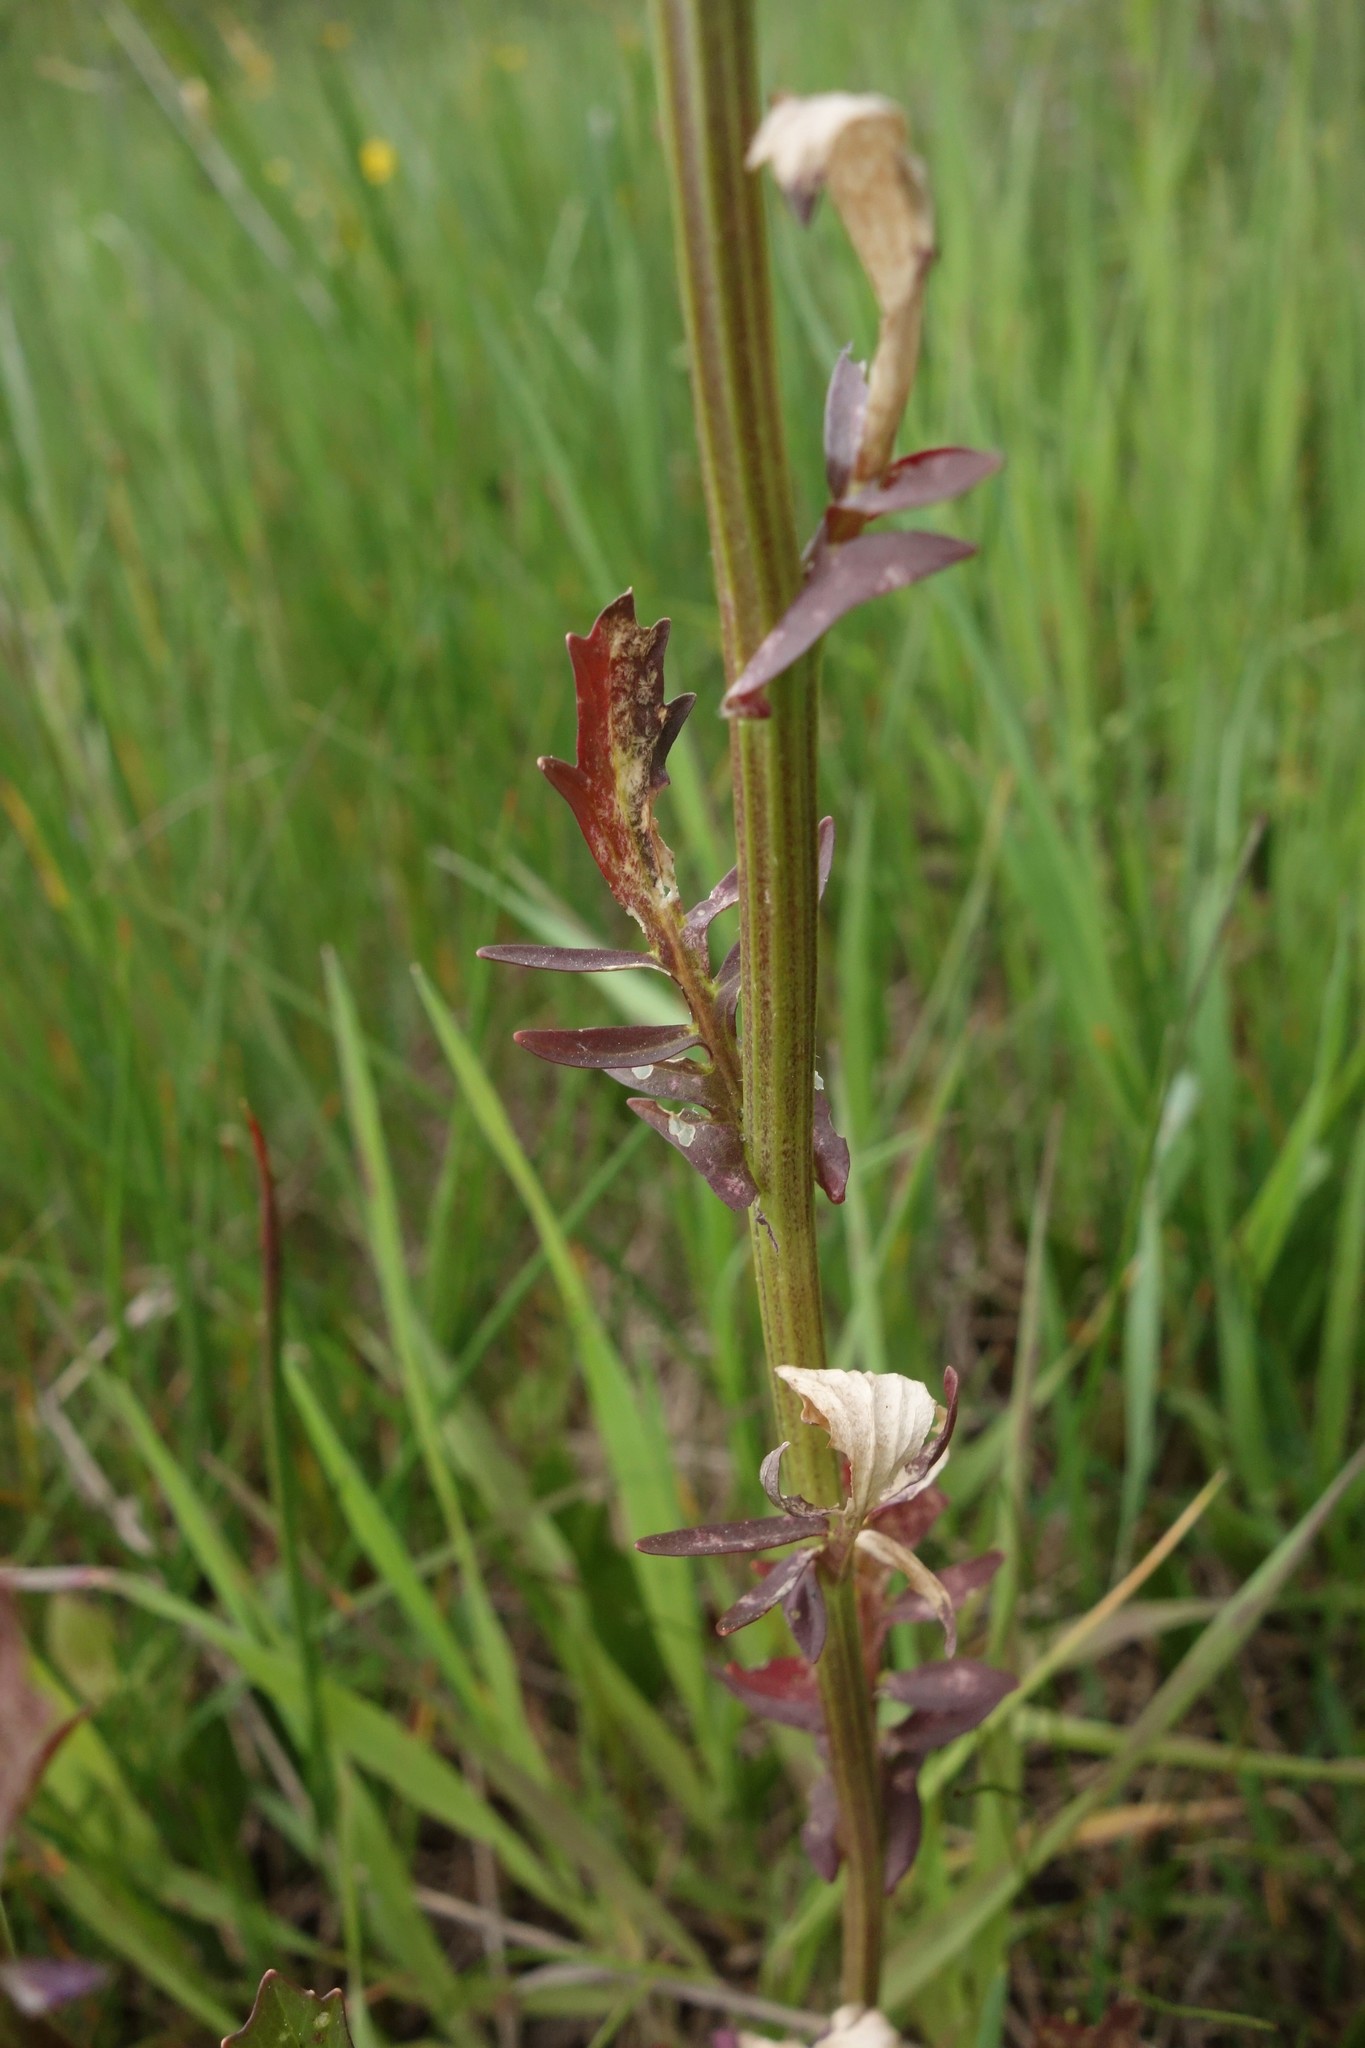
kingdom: Plantae
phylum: Tracheophyta
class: Magnoliopsida
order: Brassicales
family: Brassicaceae
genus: Barbarea
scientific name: Barbarea vulgaris
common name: Cressy-greens
